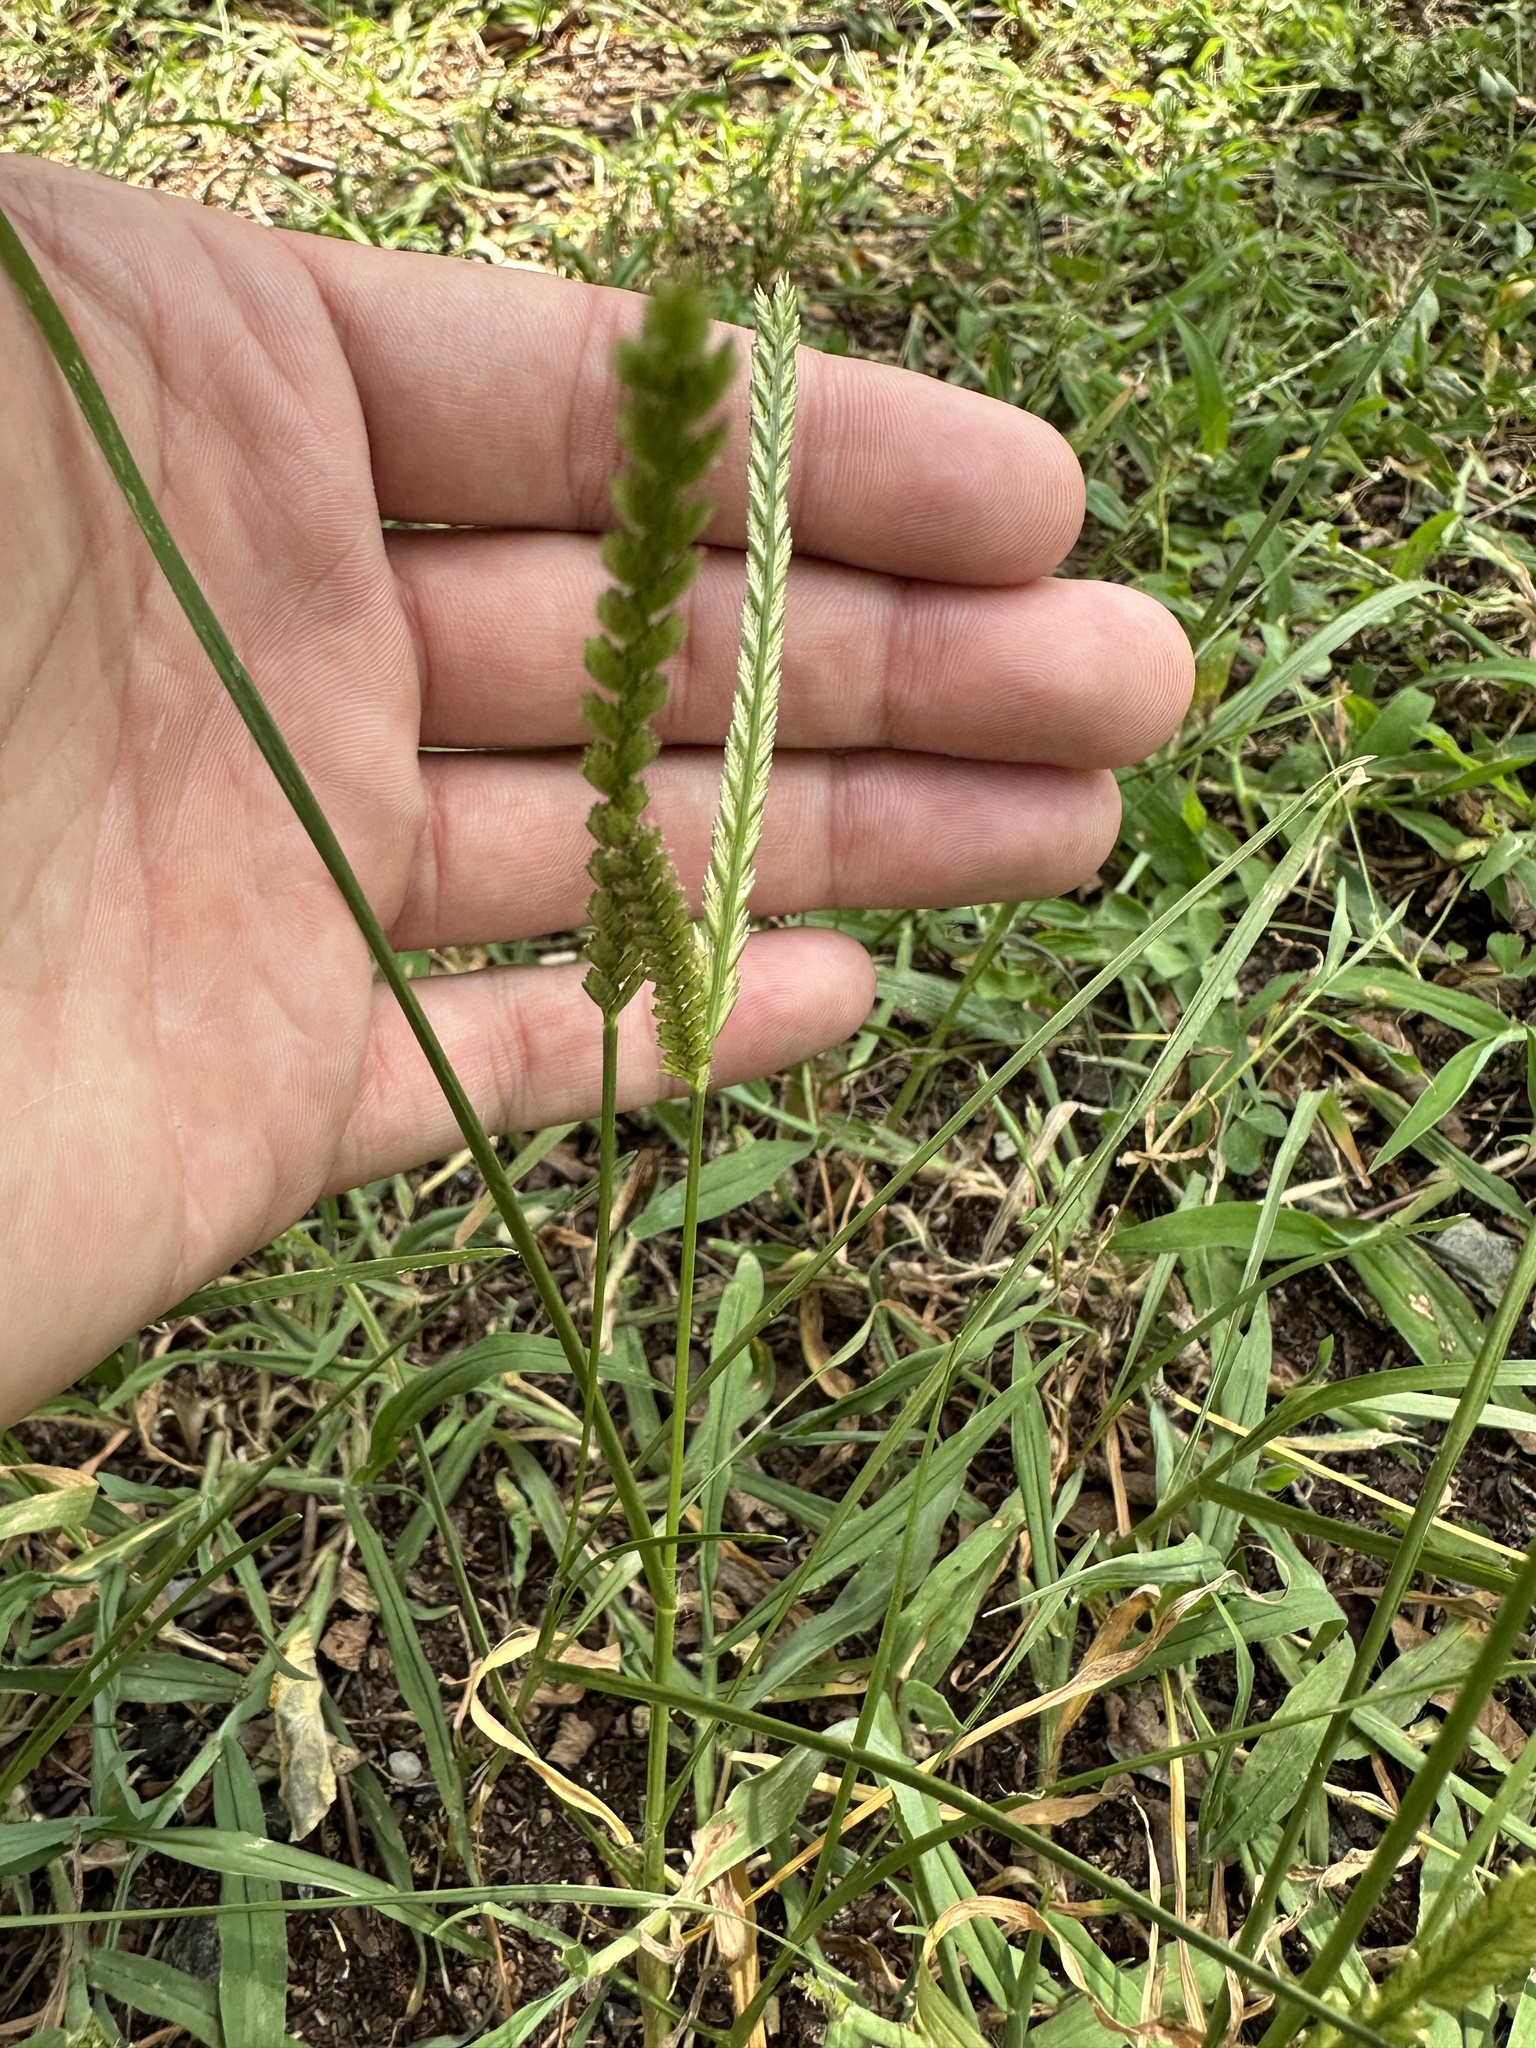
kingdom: Plantae
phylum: Tracheophyta
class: Liliopsida
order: Poales
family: Poaceae
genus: Eleusine
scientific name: Eleusine indica
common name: Yard-grass
